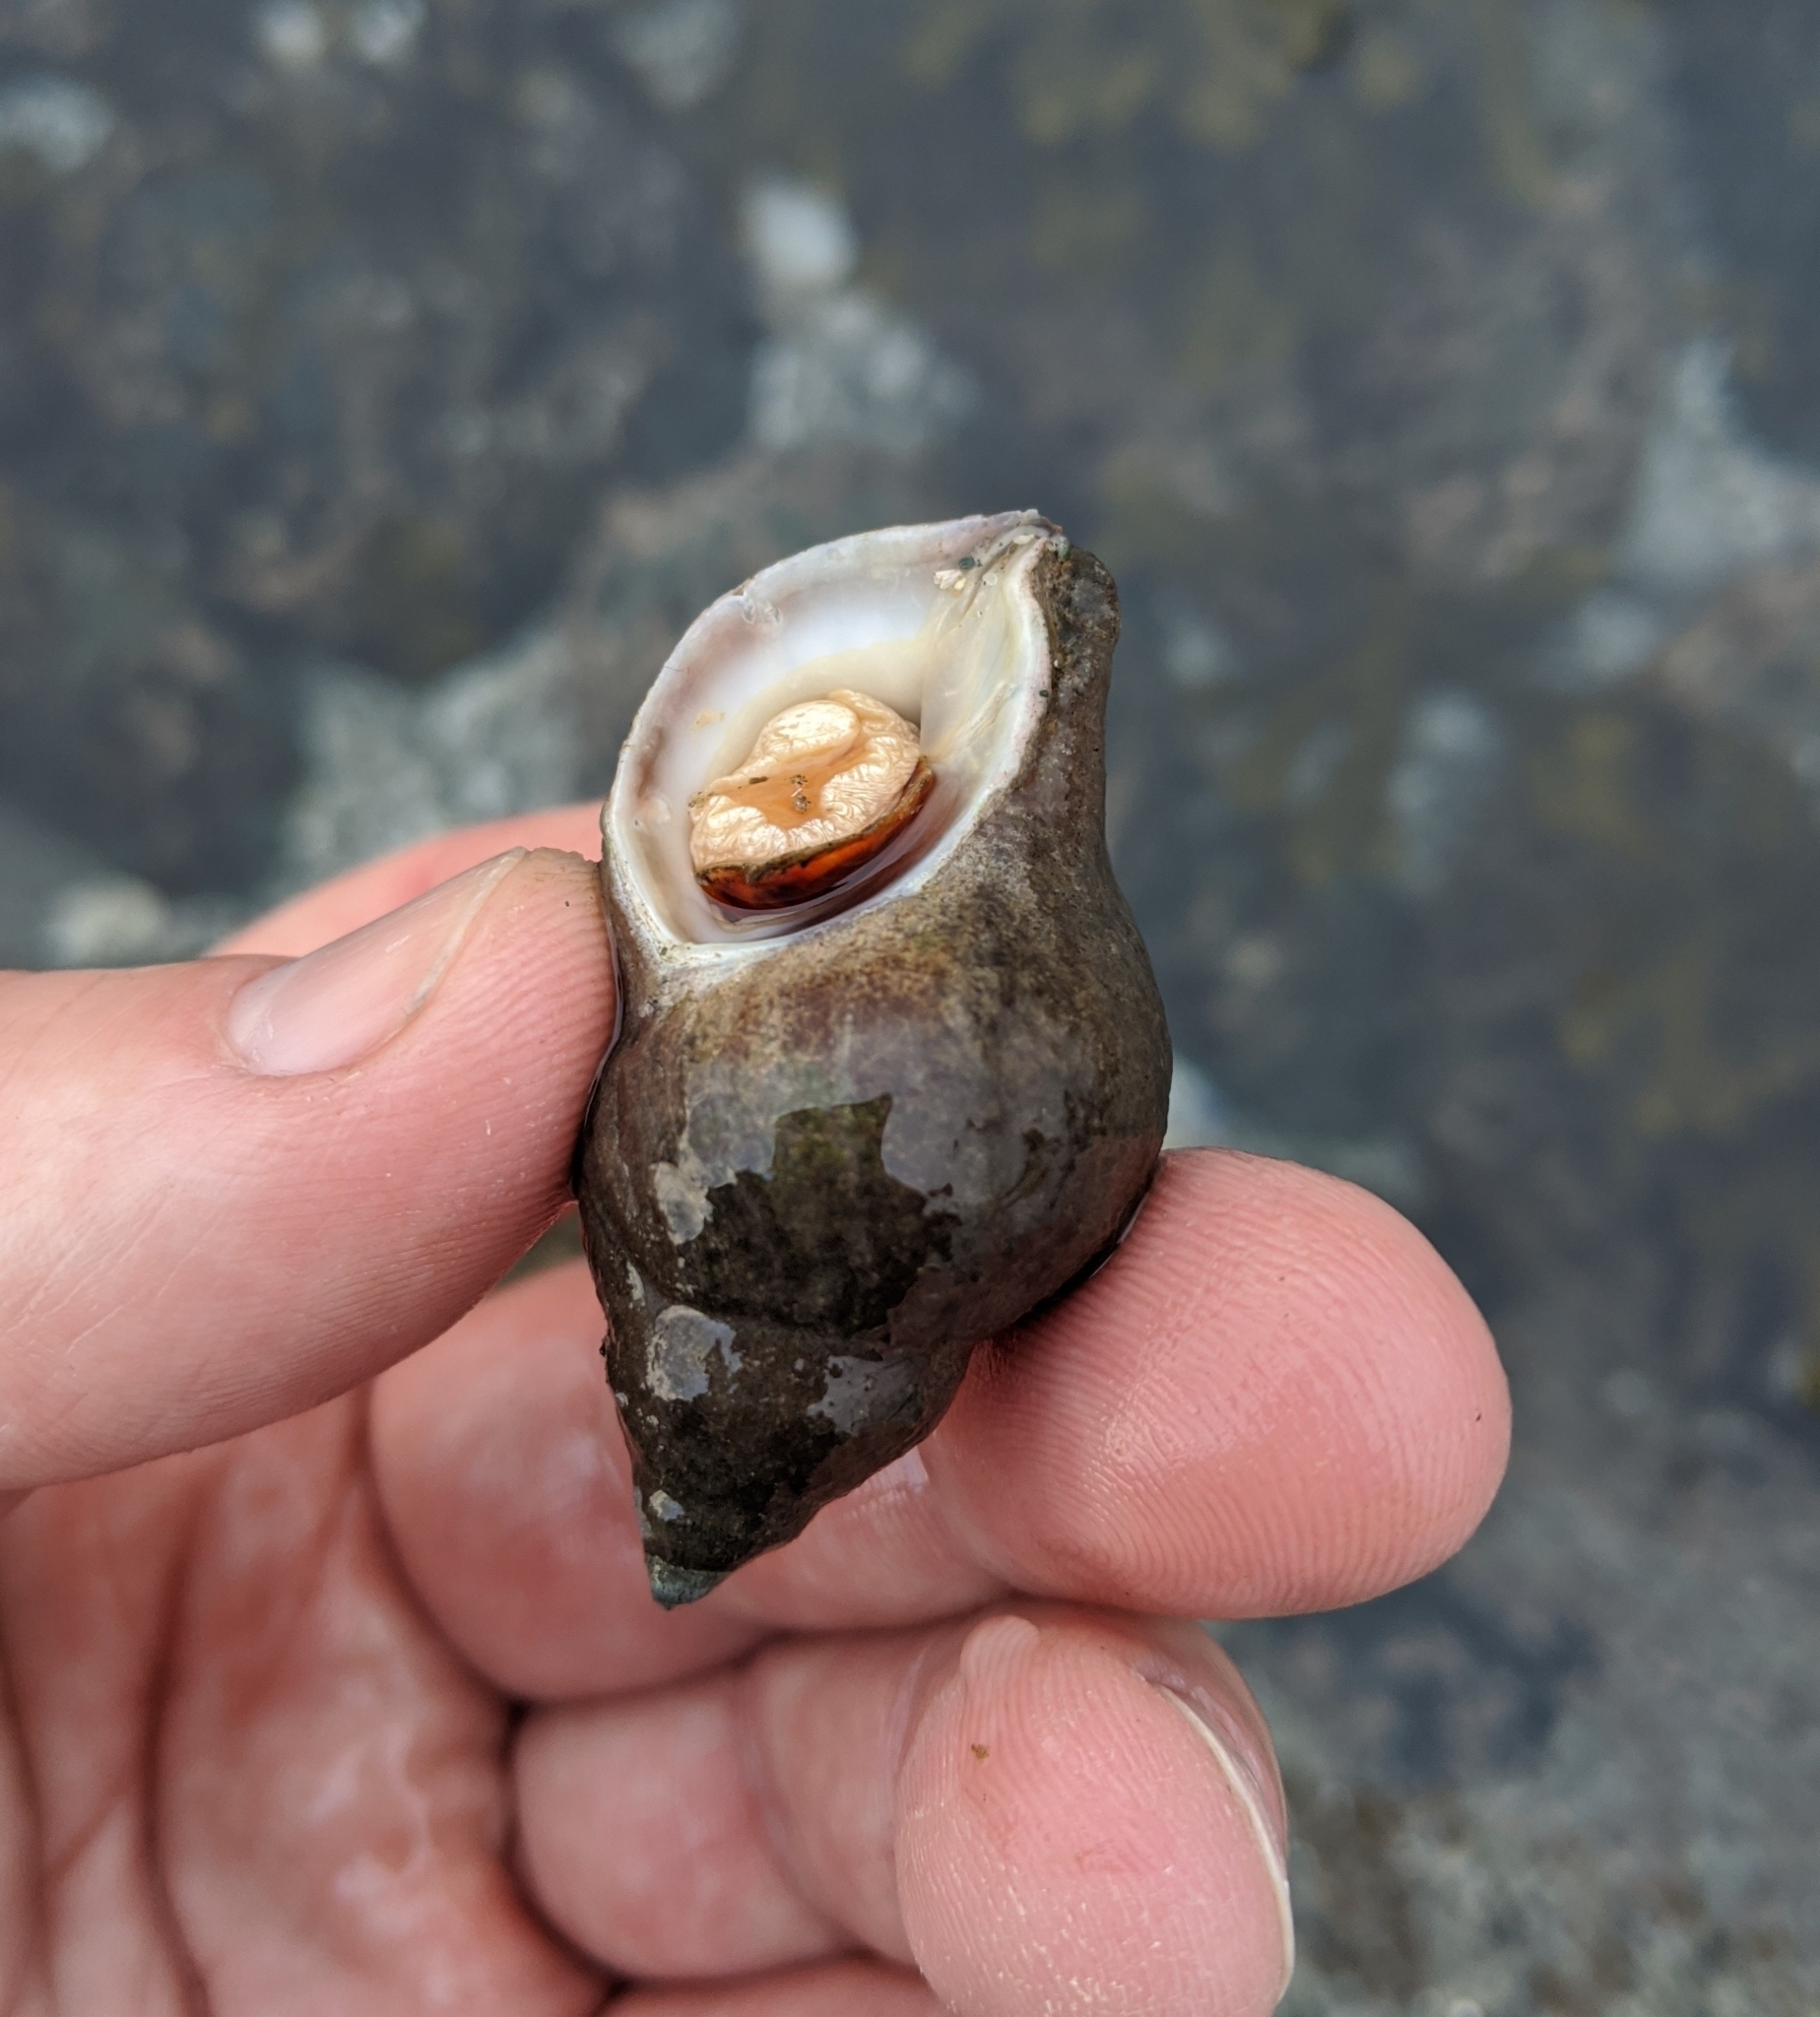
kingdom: Animalia
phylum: Mollusca
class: Gastropoda
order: Neogastropoda
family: Muricidae
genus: Nucella
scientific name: Nucella lamellosa
